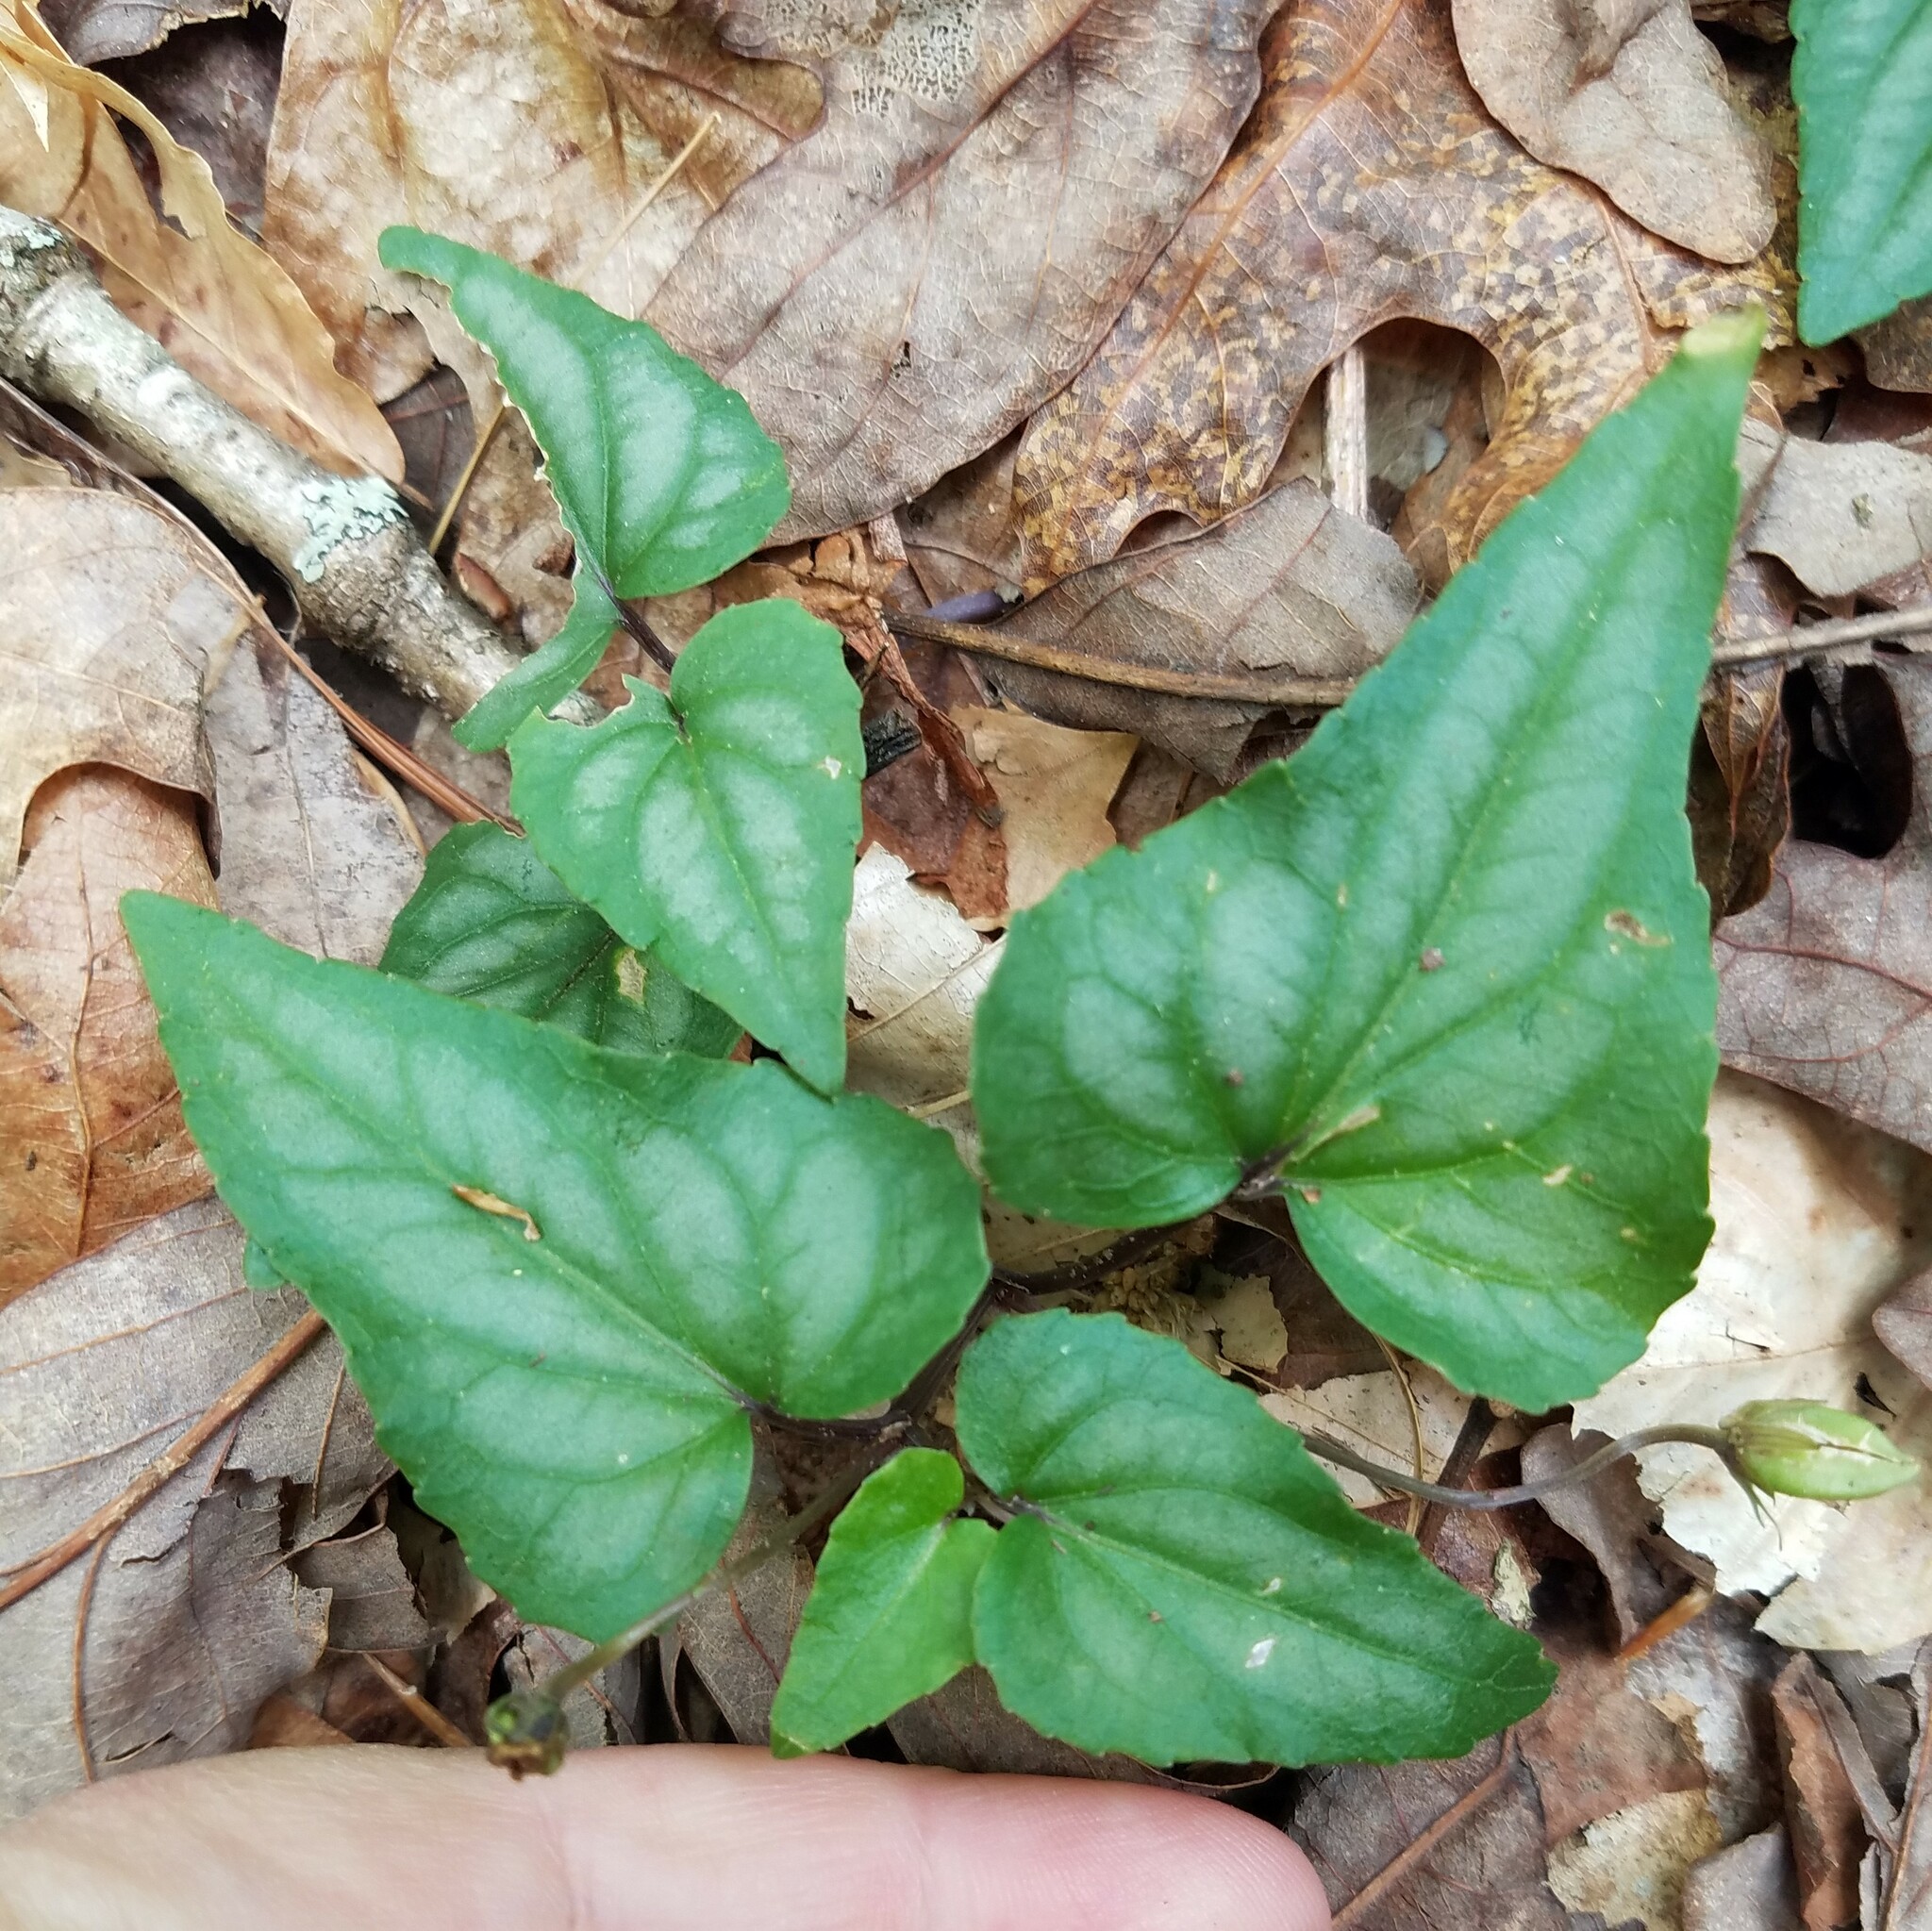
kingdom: Plantae
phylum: Tracheophyta
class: Magnoliopsida
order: Malpighiales
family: Violaceae
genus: Viola
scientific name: Viola hastata
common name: Spear-leaf violet
